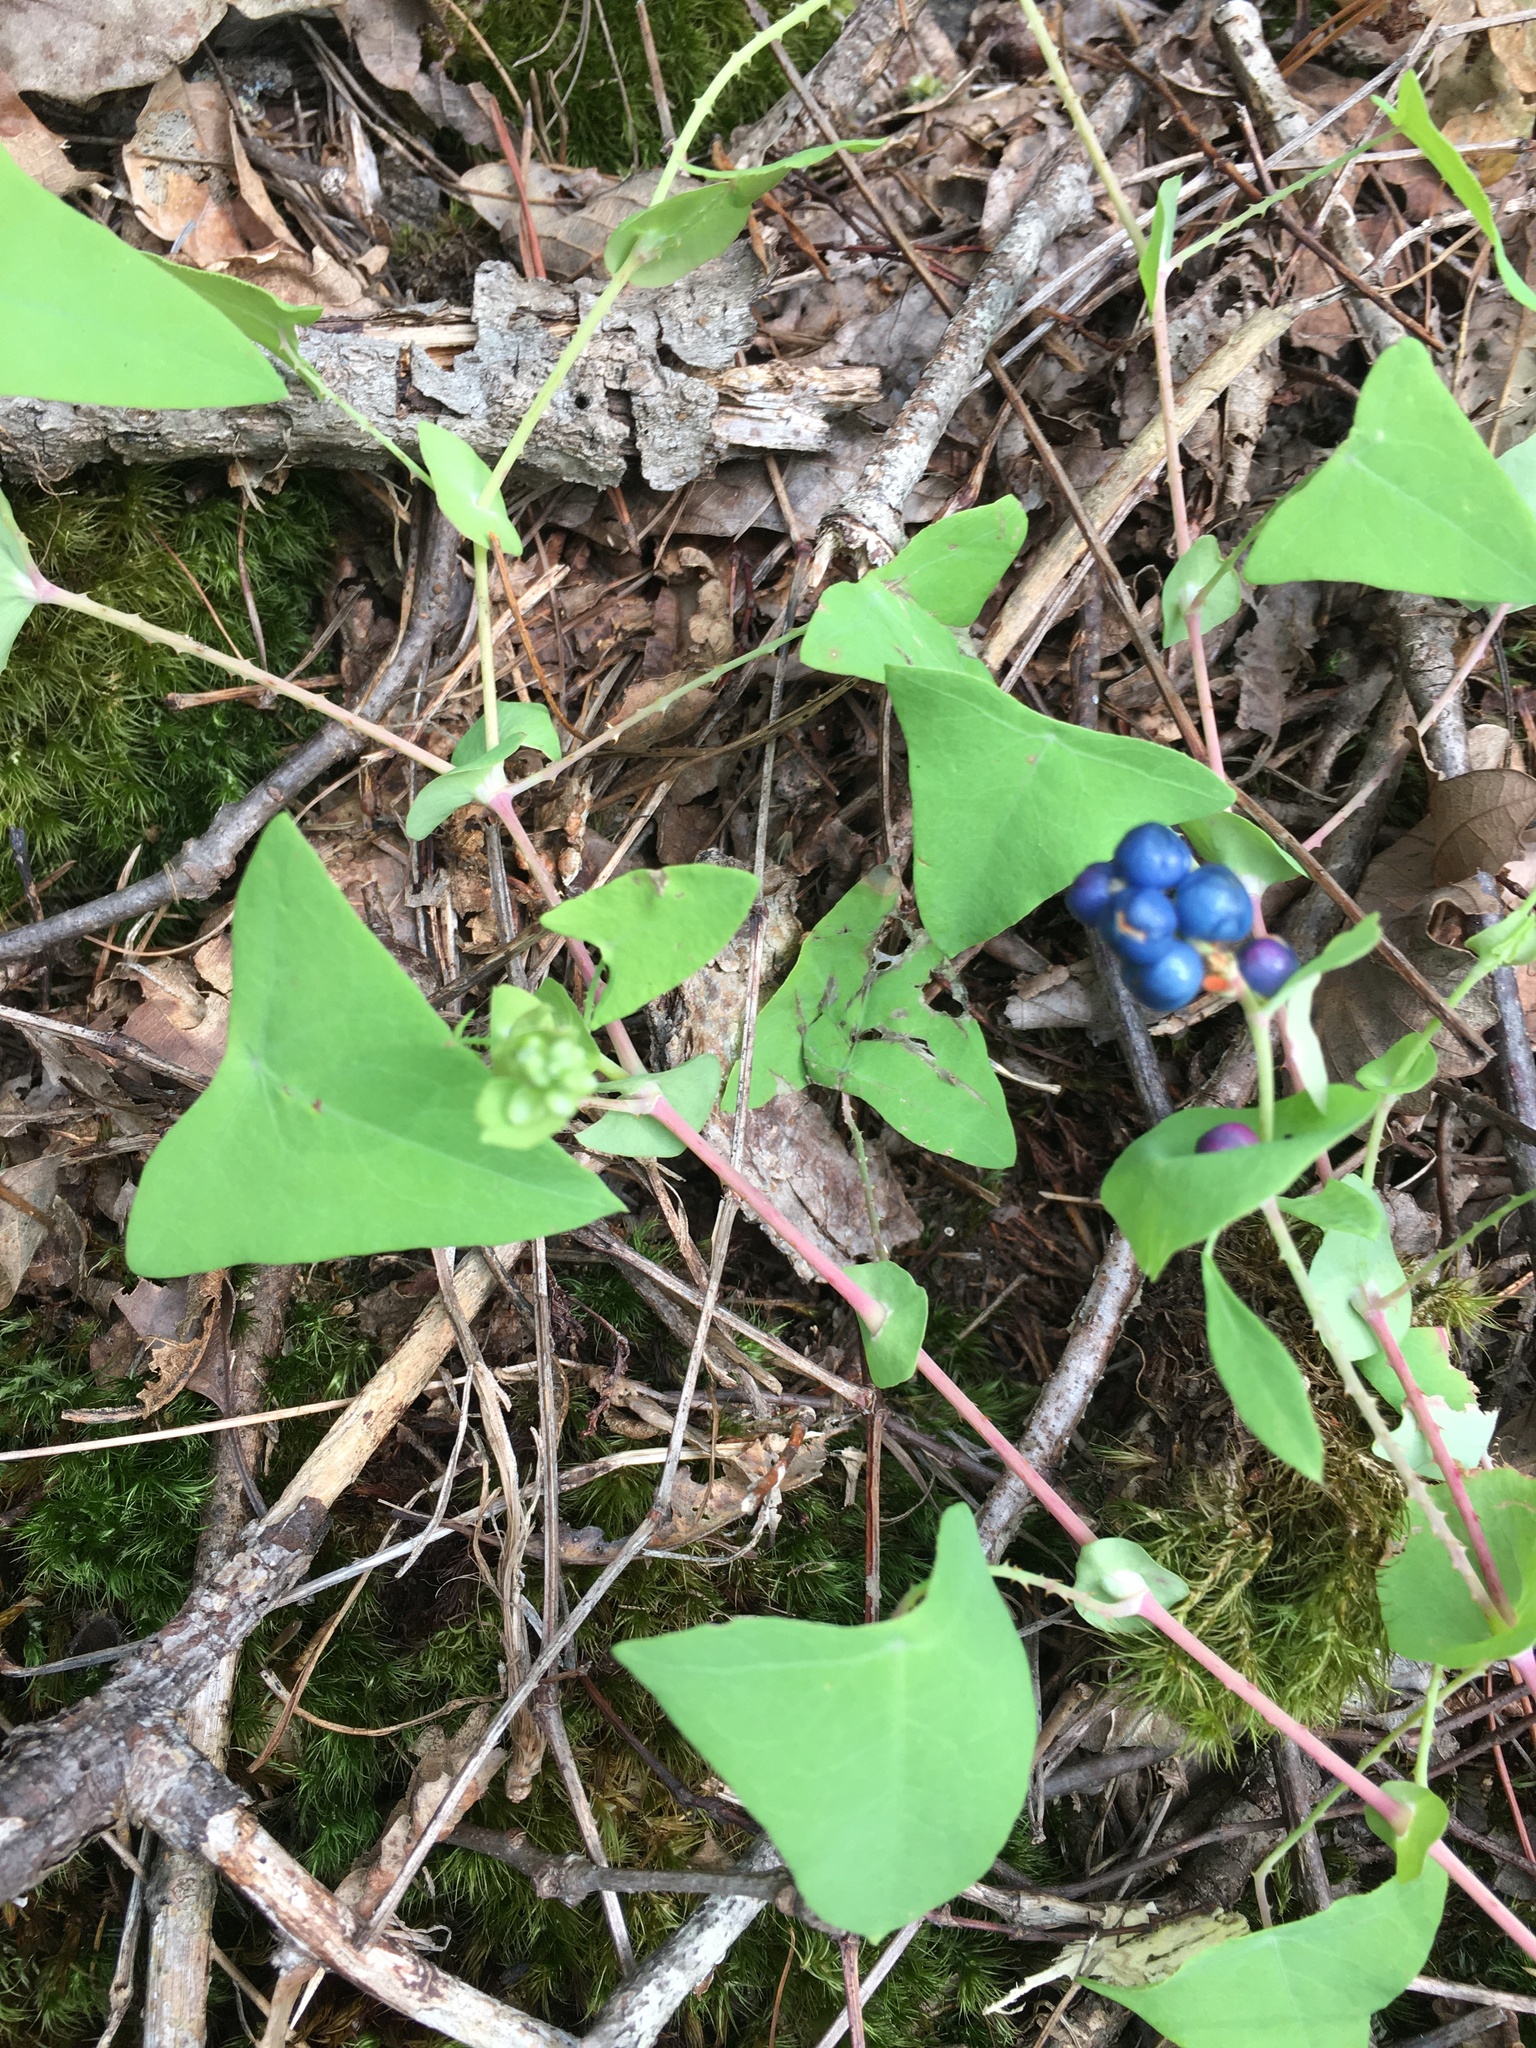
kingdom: Plantae
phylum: Tracheophyta
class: Magnoliopsida
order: Caryophyllales
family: Polygonaceae
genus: Persicaria
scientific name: Persicaria perfoliata
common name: Asiatic tearthumb
